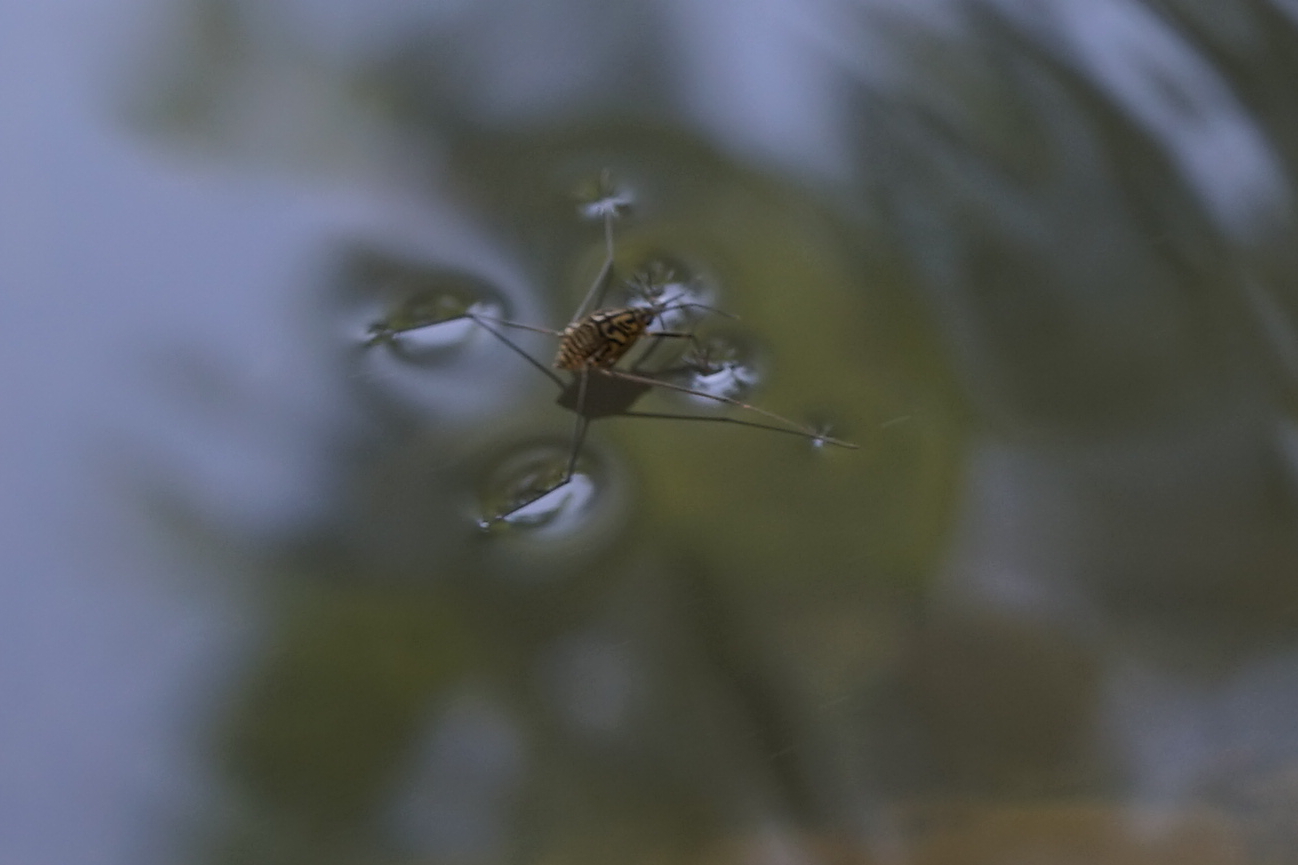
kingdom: Animalia
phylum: Arthropoda
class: Insecta
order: Hemiptera
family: Gerridae
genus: Metrocoris
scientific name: Metrocoris histrio
